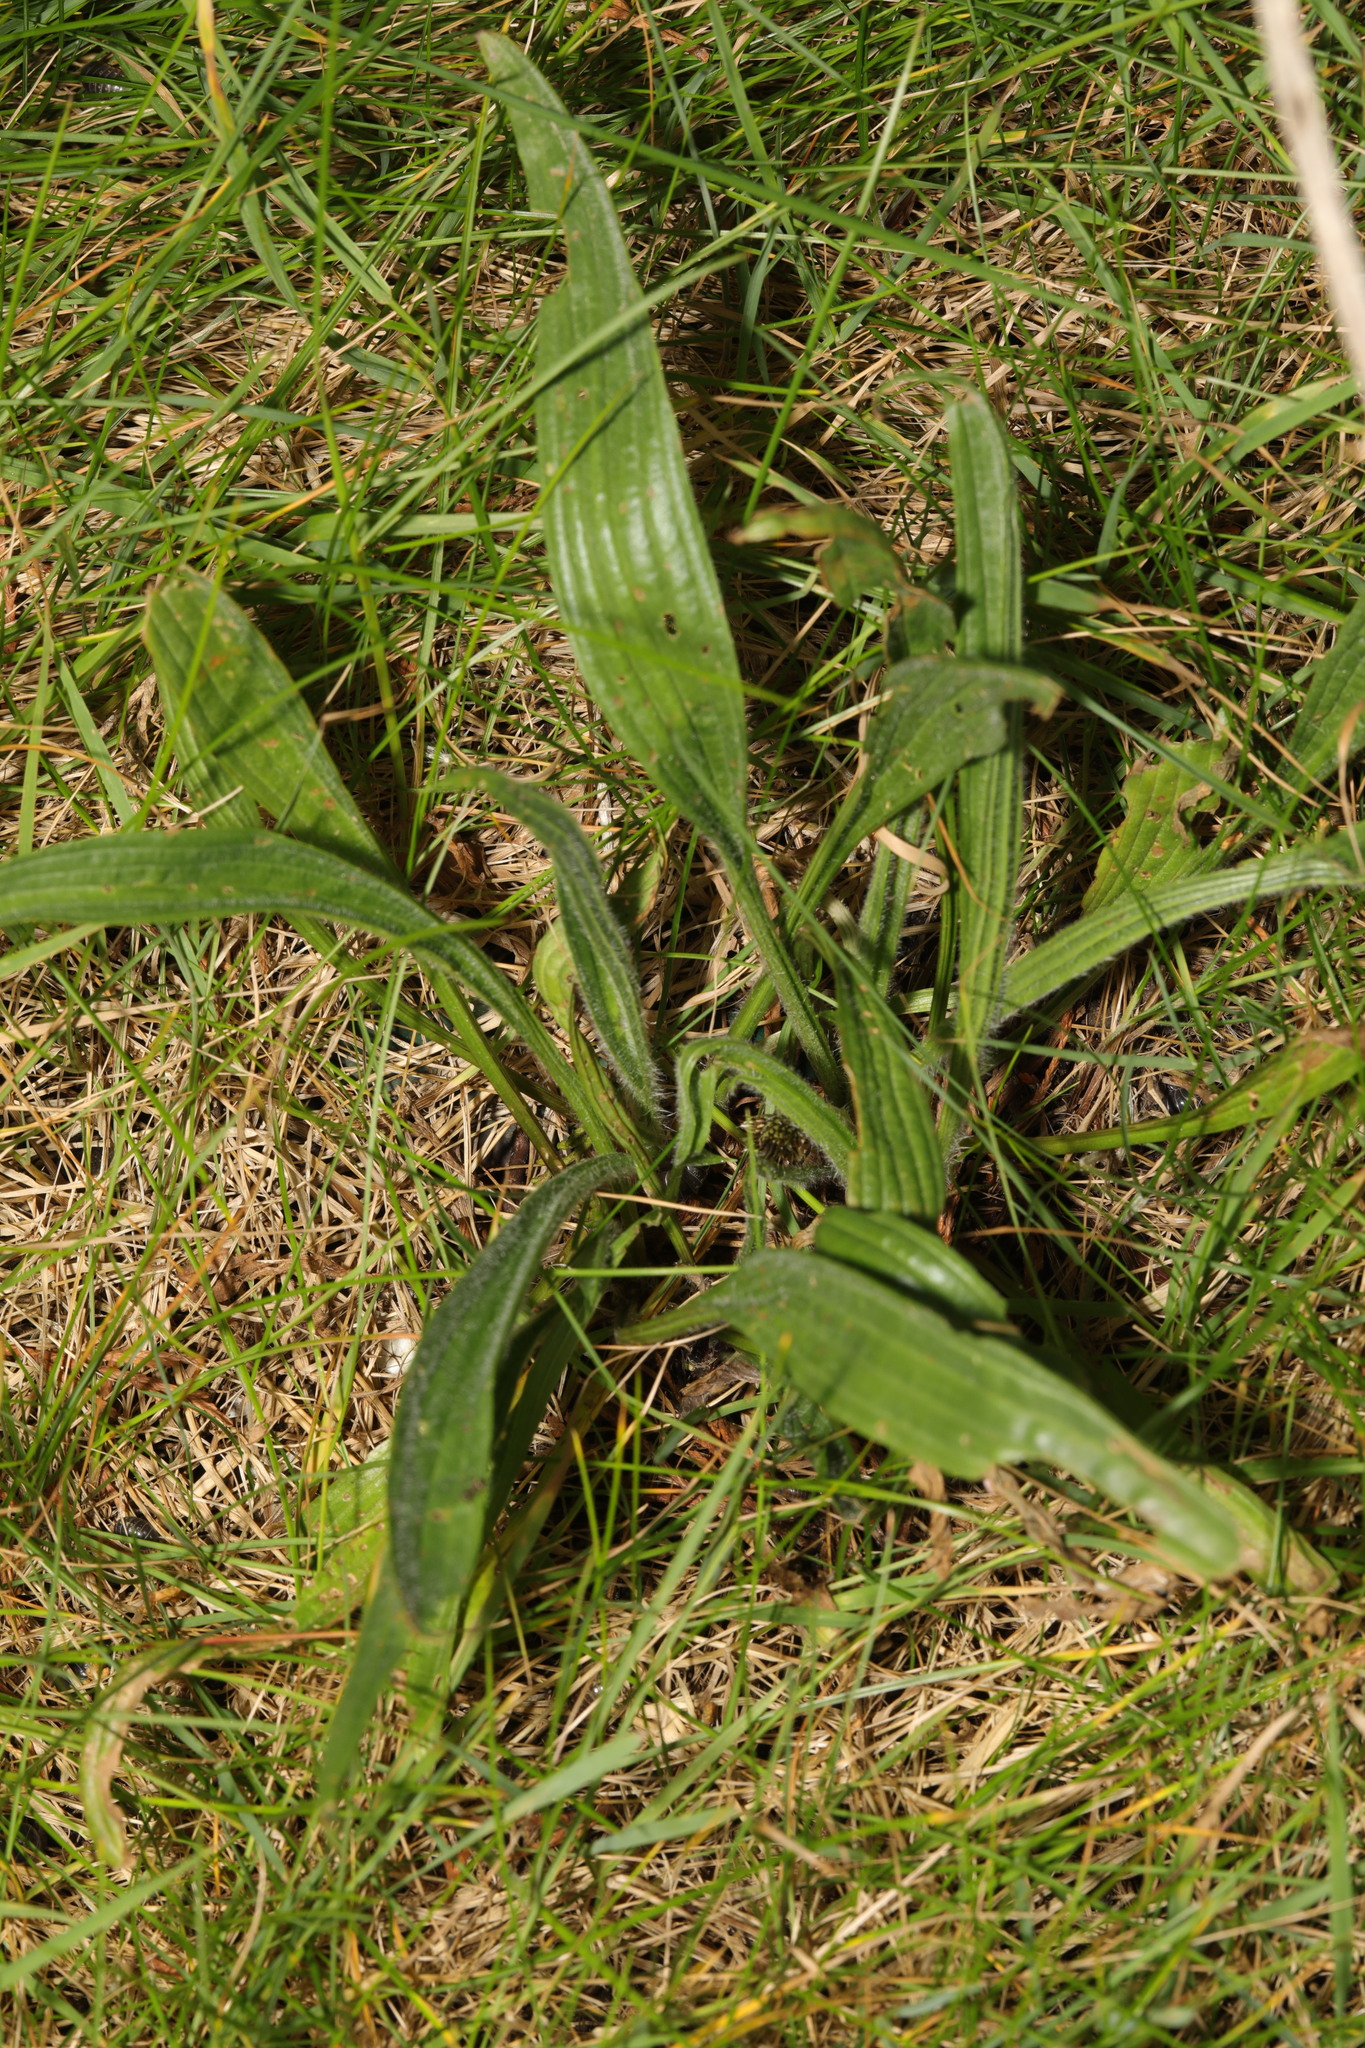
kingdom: Plantae
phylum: Tracheophyta
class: Magnoliopsida
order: Lamiales
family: Plantaginaceae
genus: Plantago
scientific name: Plantago lanceolata
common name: Ribwort plantain
